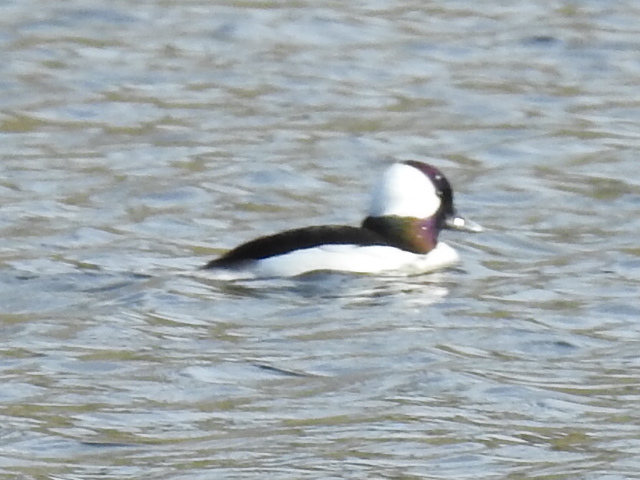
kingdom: Animalia
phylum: Chordata
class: Aves
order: Anseriformes
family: Anatidae
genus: Bucephala
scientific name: Bucephala albeola
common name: Bufflehead
